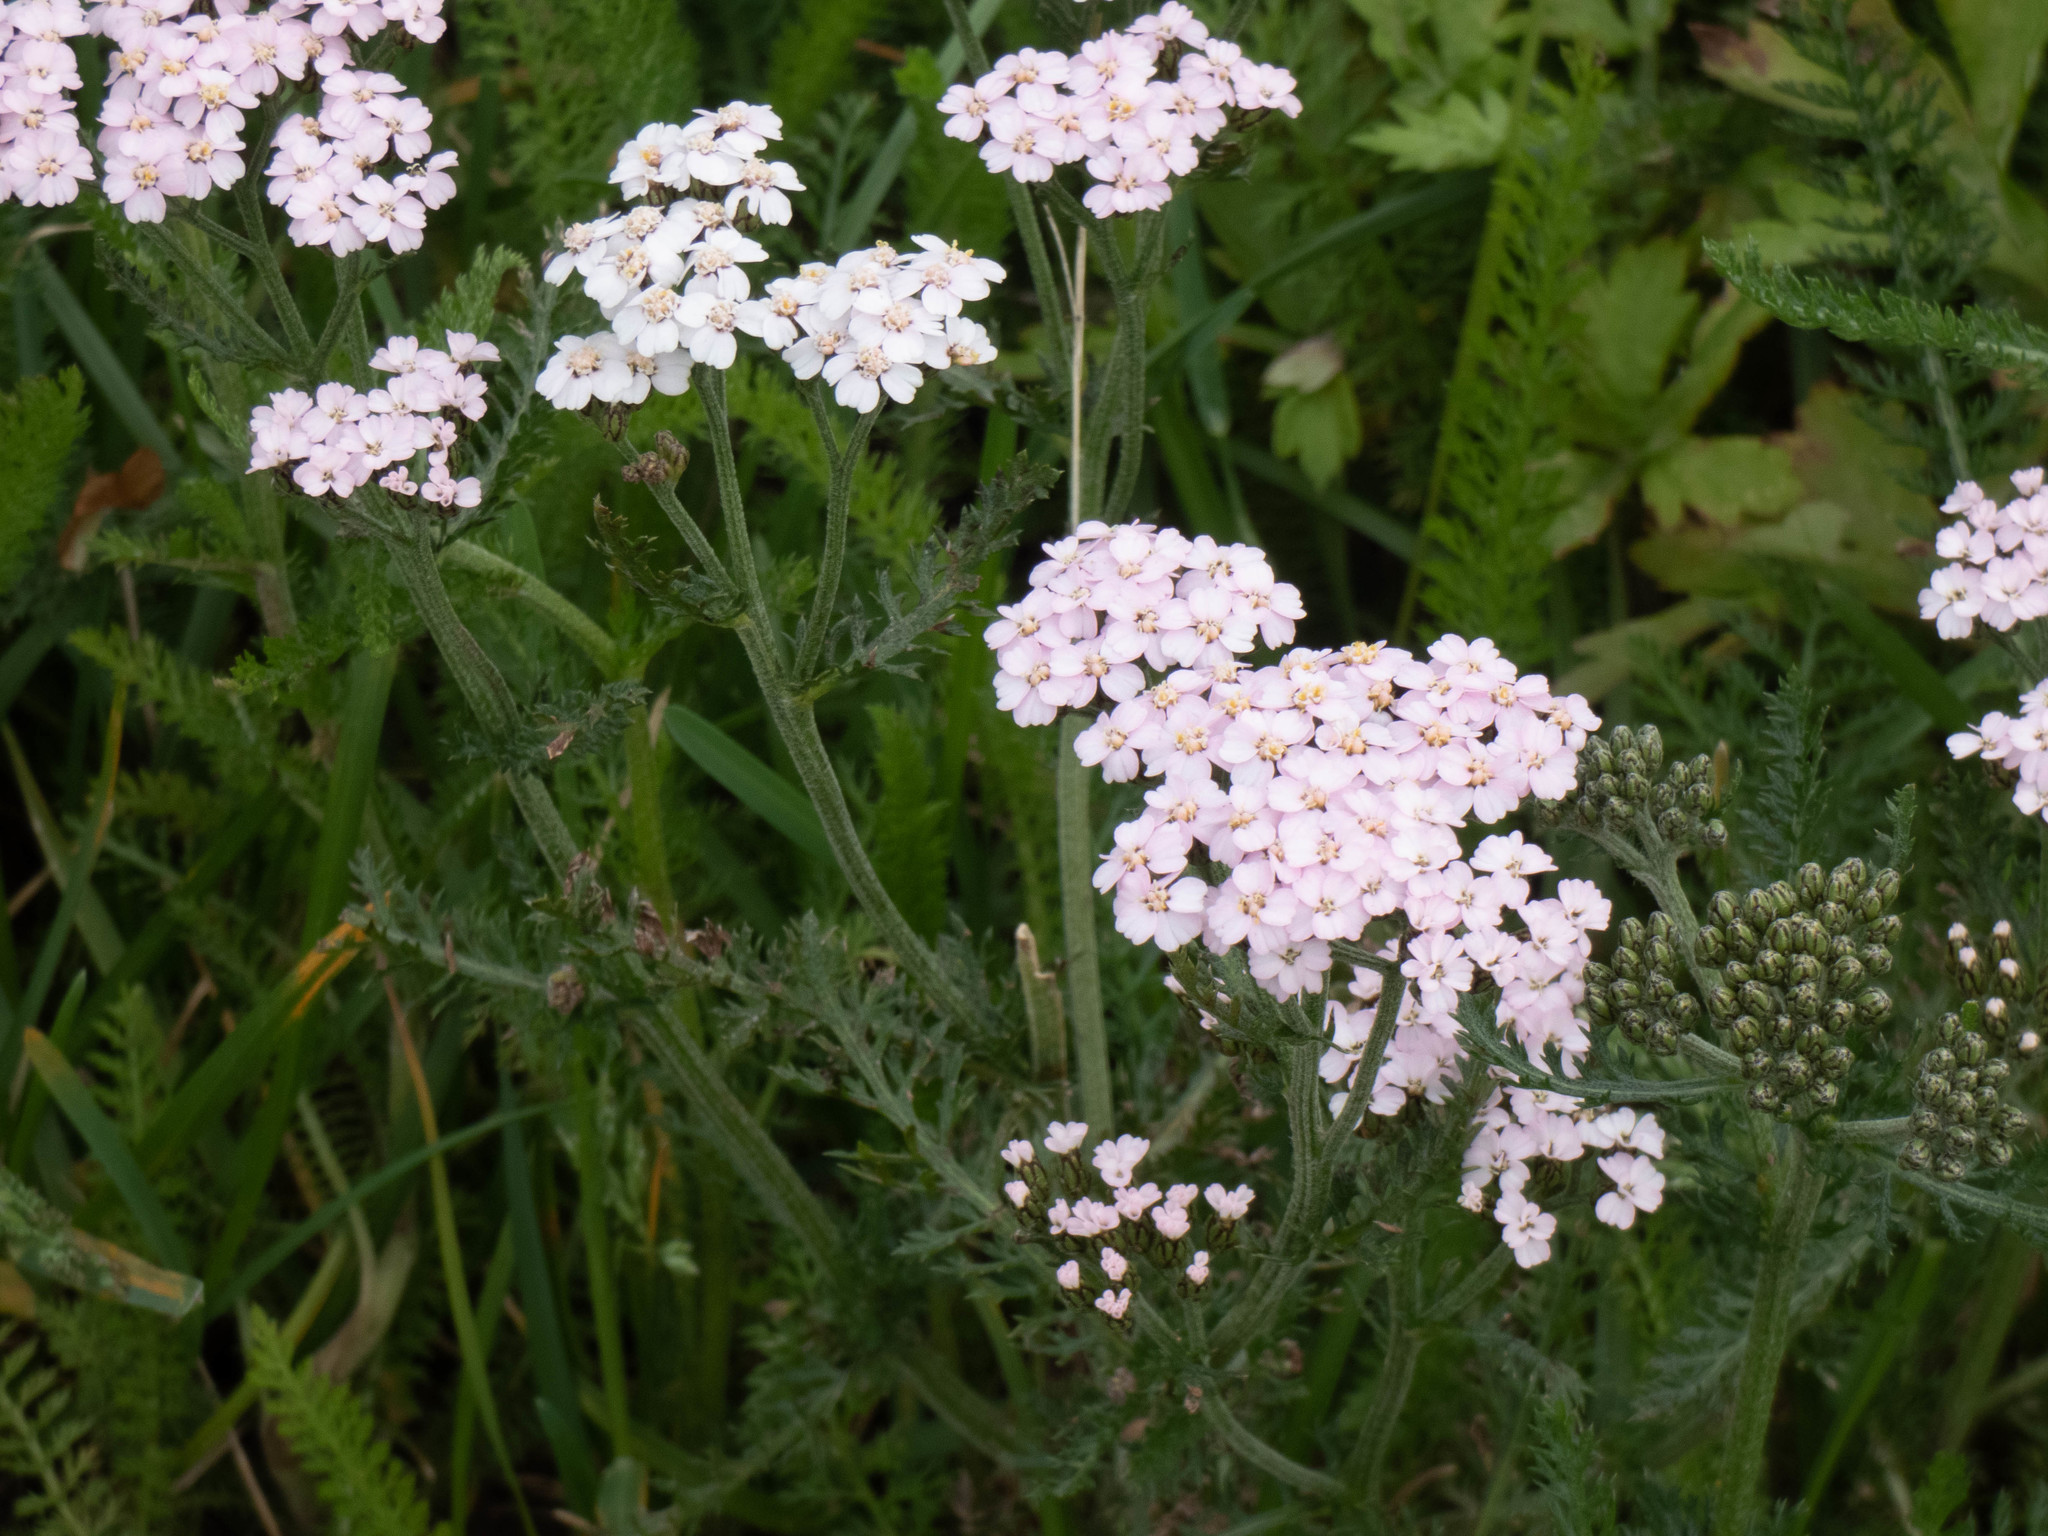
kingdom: Plantae
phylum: Tracheophyta
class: Magnoliopsida
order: Asterales
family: Asteraceae
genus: Achillea
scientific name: Achillea millefolium
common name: Yarrow
